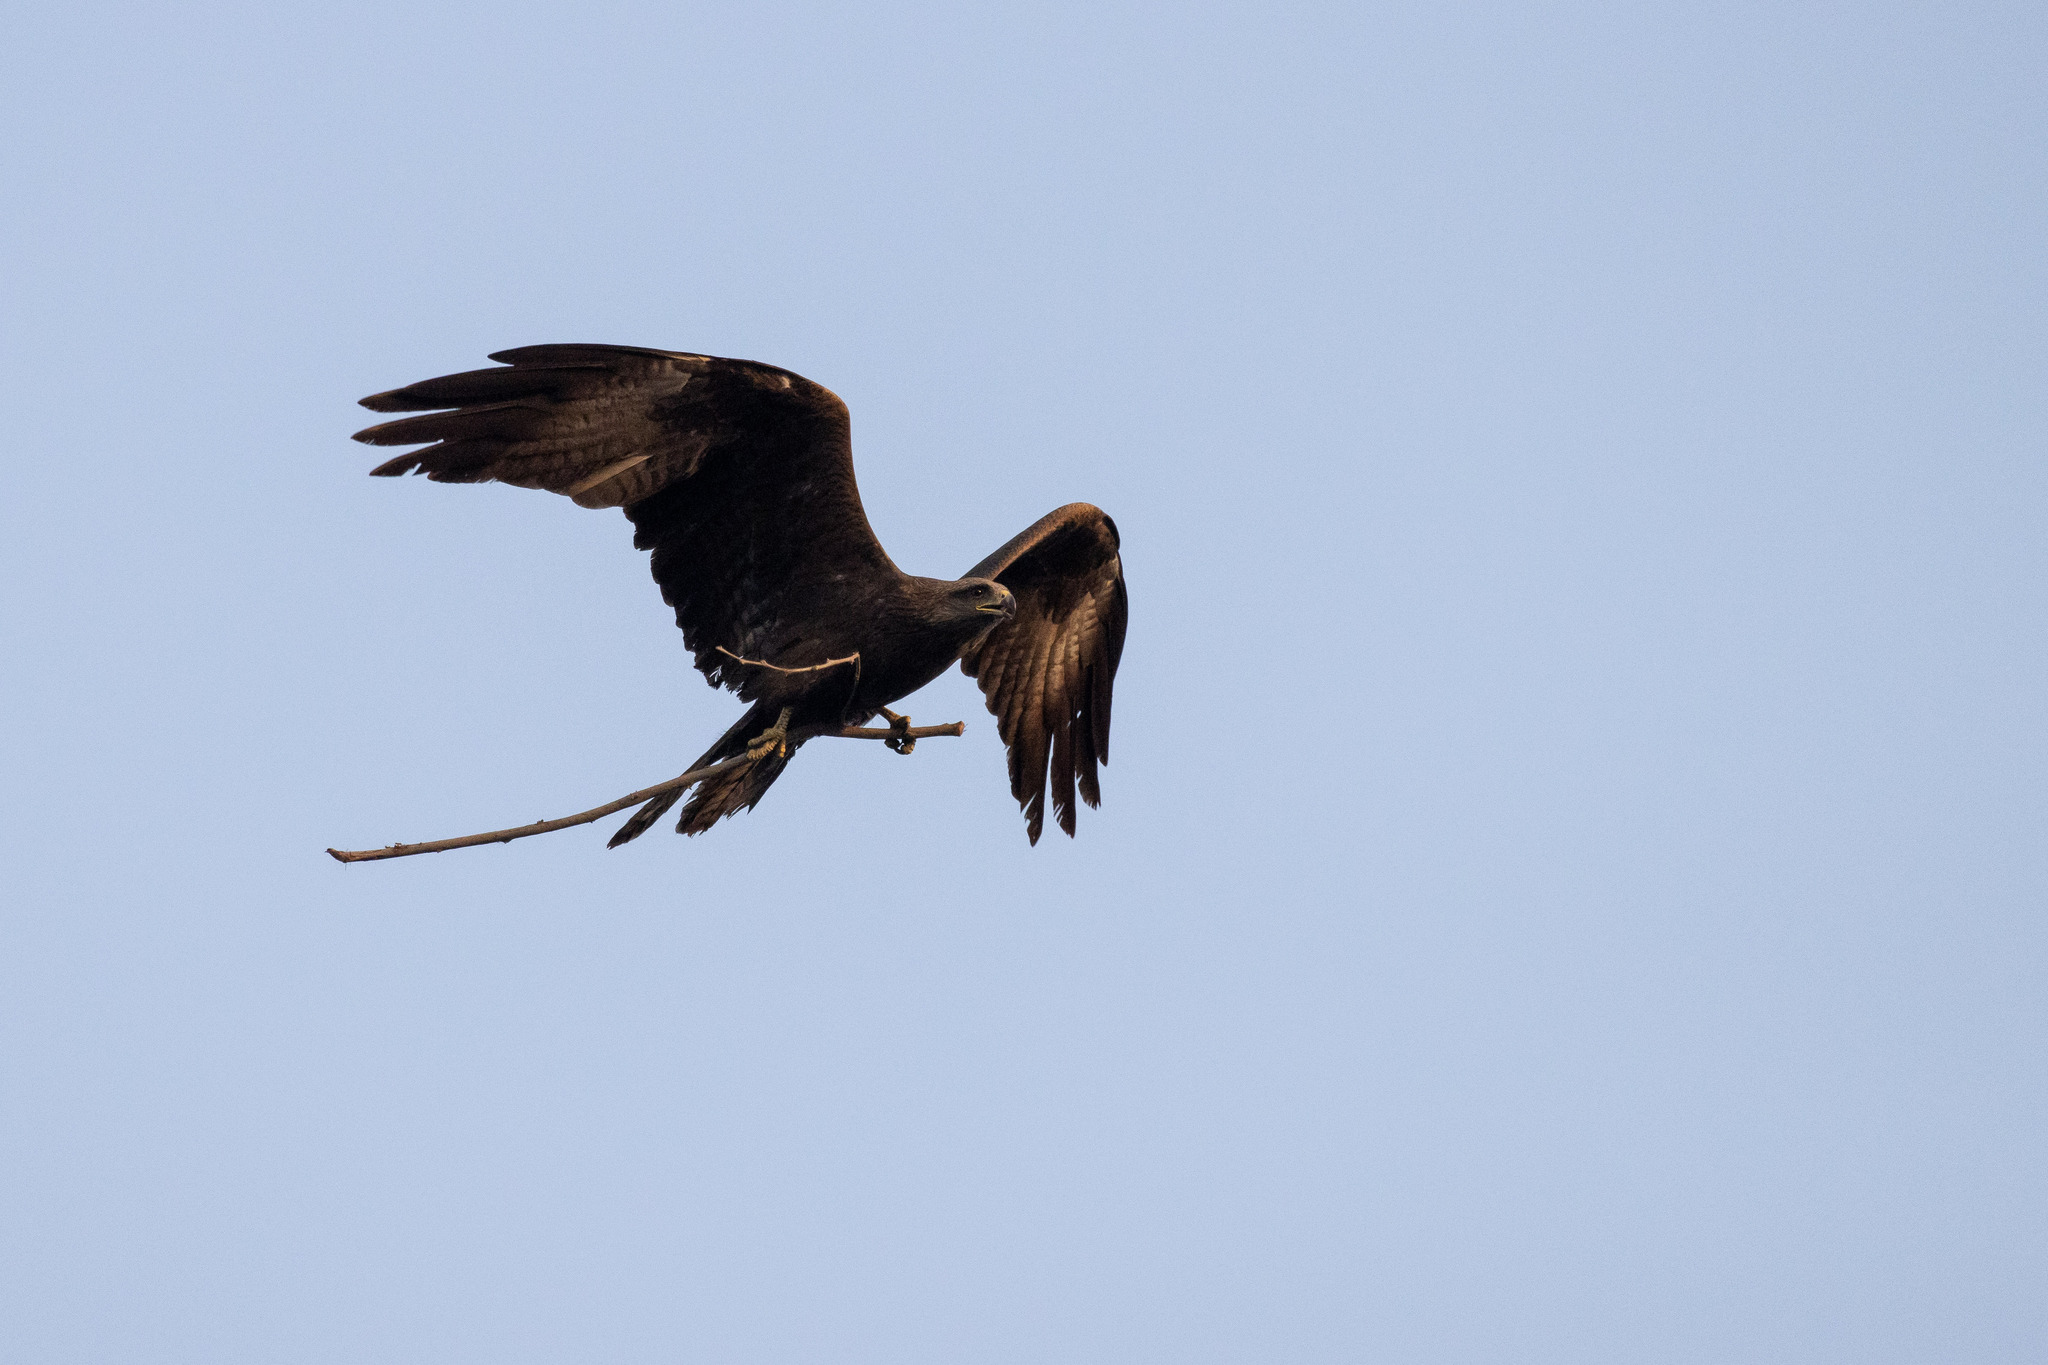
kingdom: Animalia
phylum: Chordata
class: Aves
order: Accipitriformes
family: Accipitridae
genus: Milvus
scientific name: Milvus migrans
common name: Black kite
